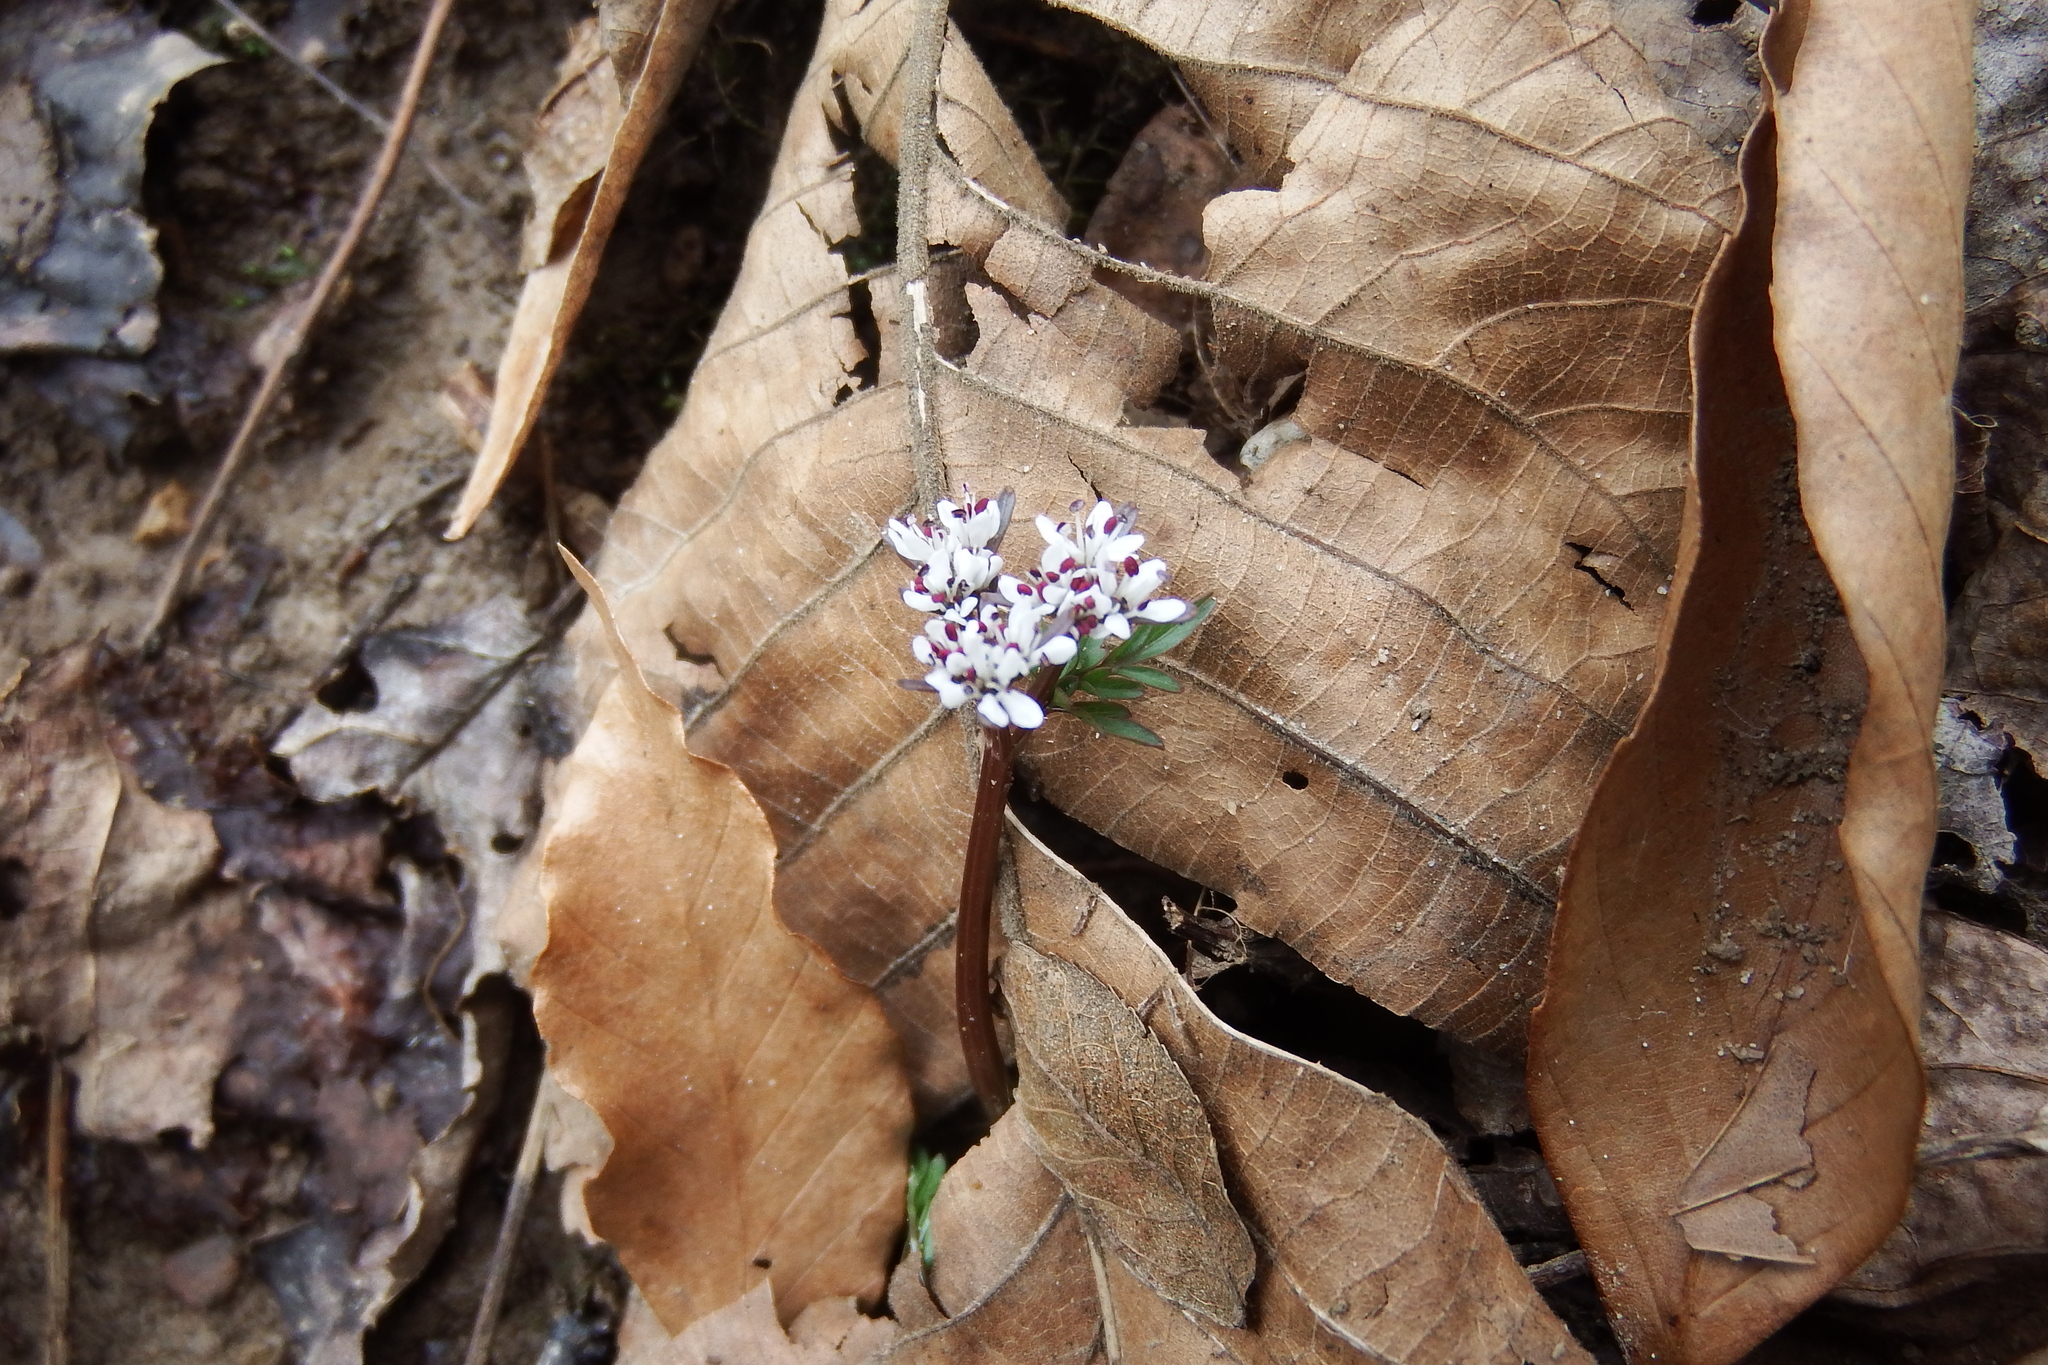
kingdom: Plantae
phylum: Tracheophyta
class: Magnoliopsida
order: Apiales
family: Apiaceae
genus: Erigenia
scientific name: Erigenia bulbosa
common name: Pepper-and-salt
